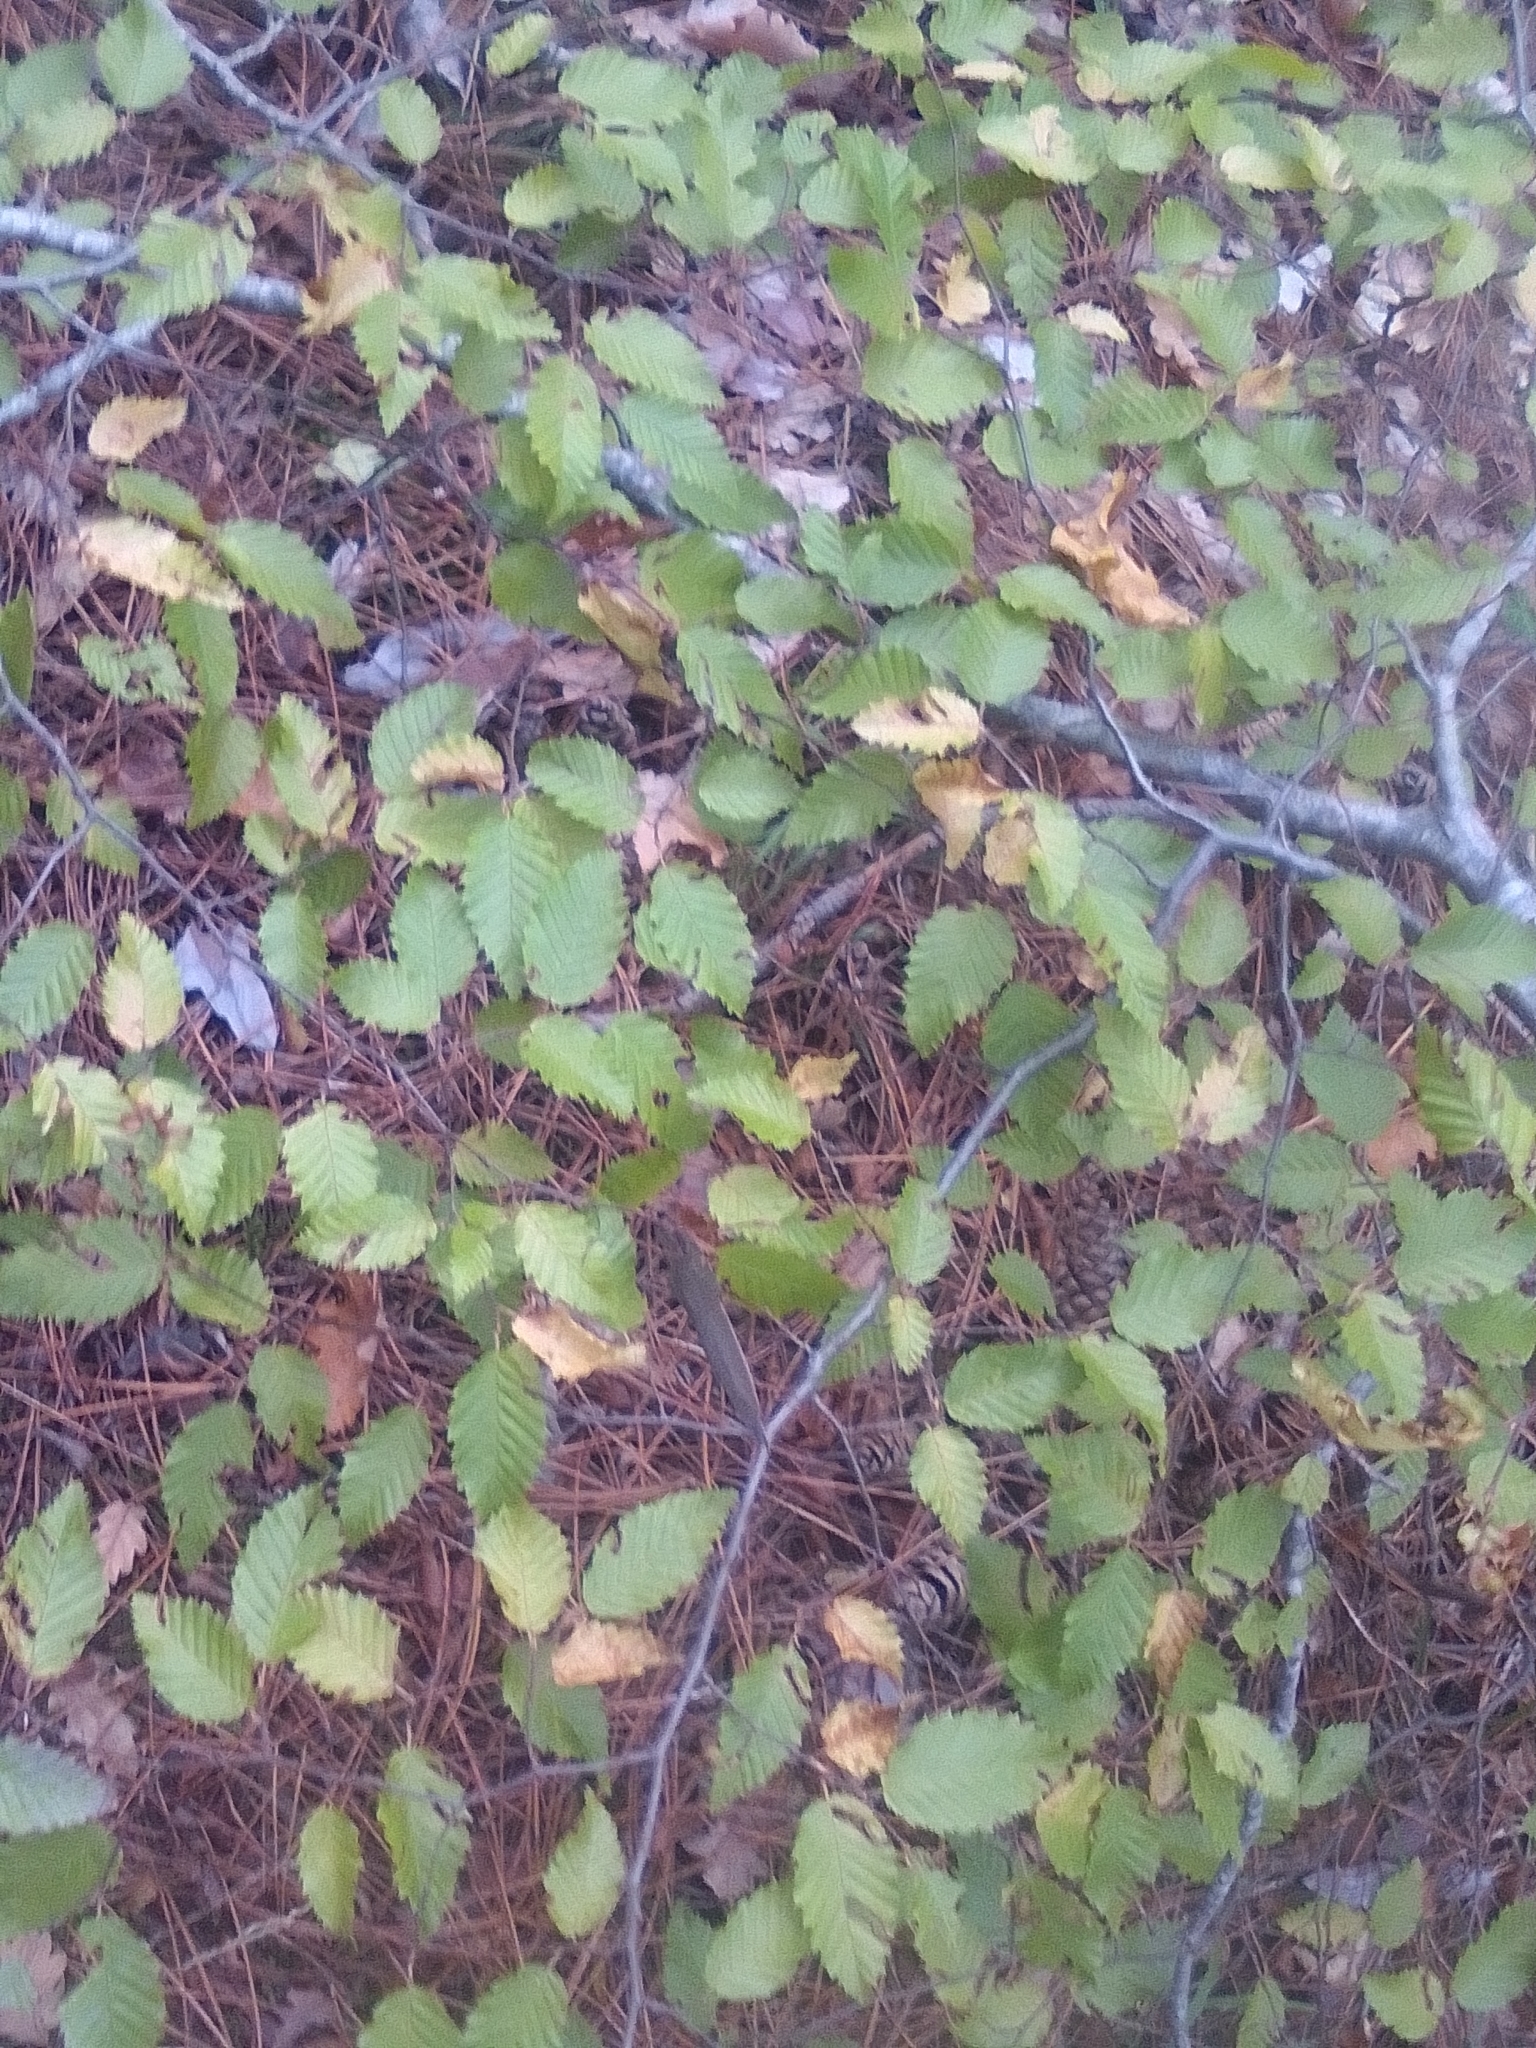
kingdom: Plantae
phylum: Tracheophyta
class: Magnoliopsida
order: Fagales
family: Betulaceae
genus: Carpinus
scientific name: Carpinus orientalis
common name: Eastern hornbeam
